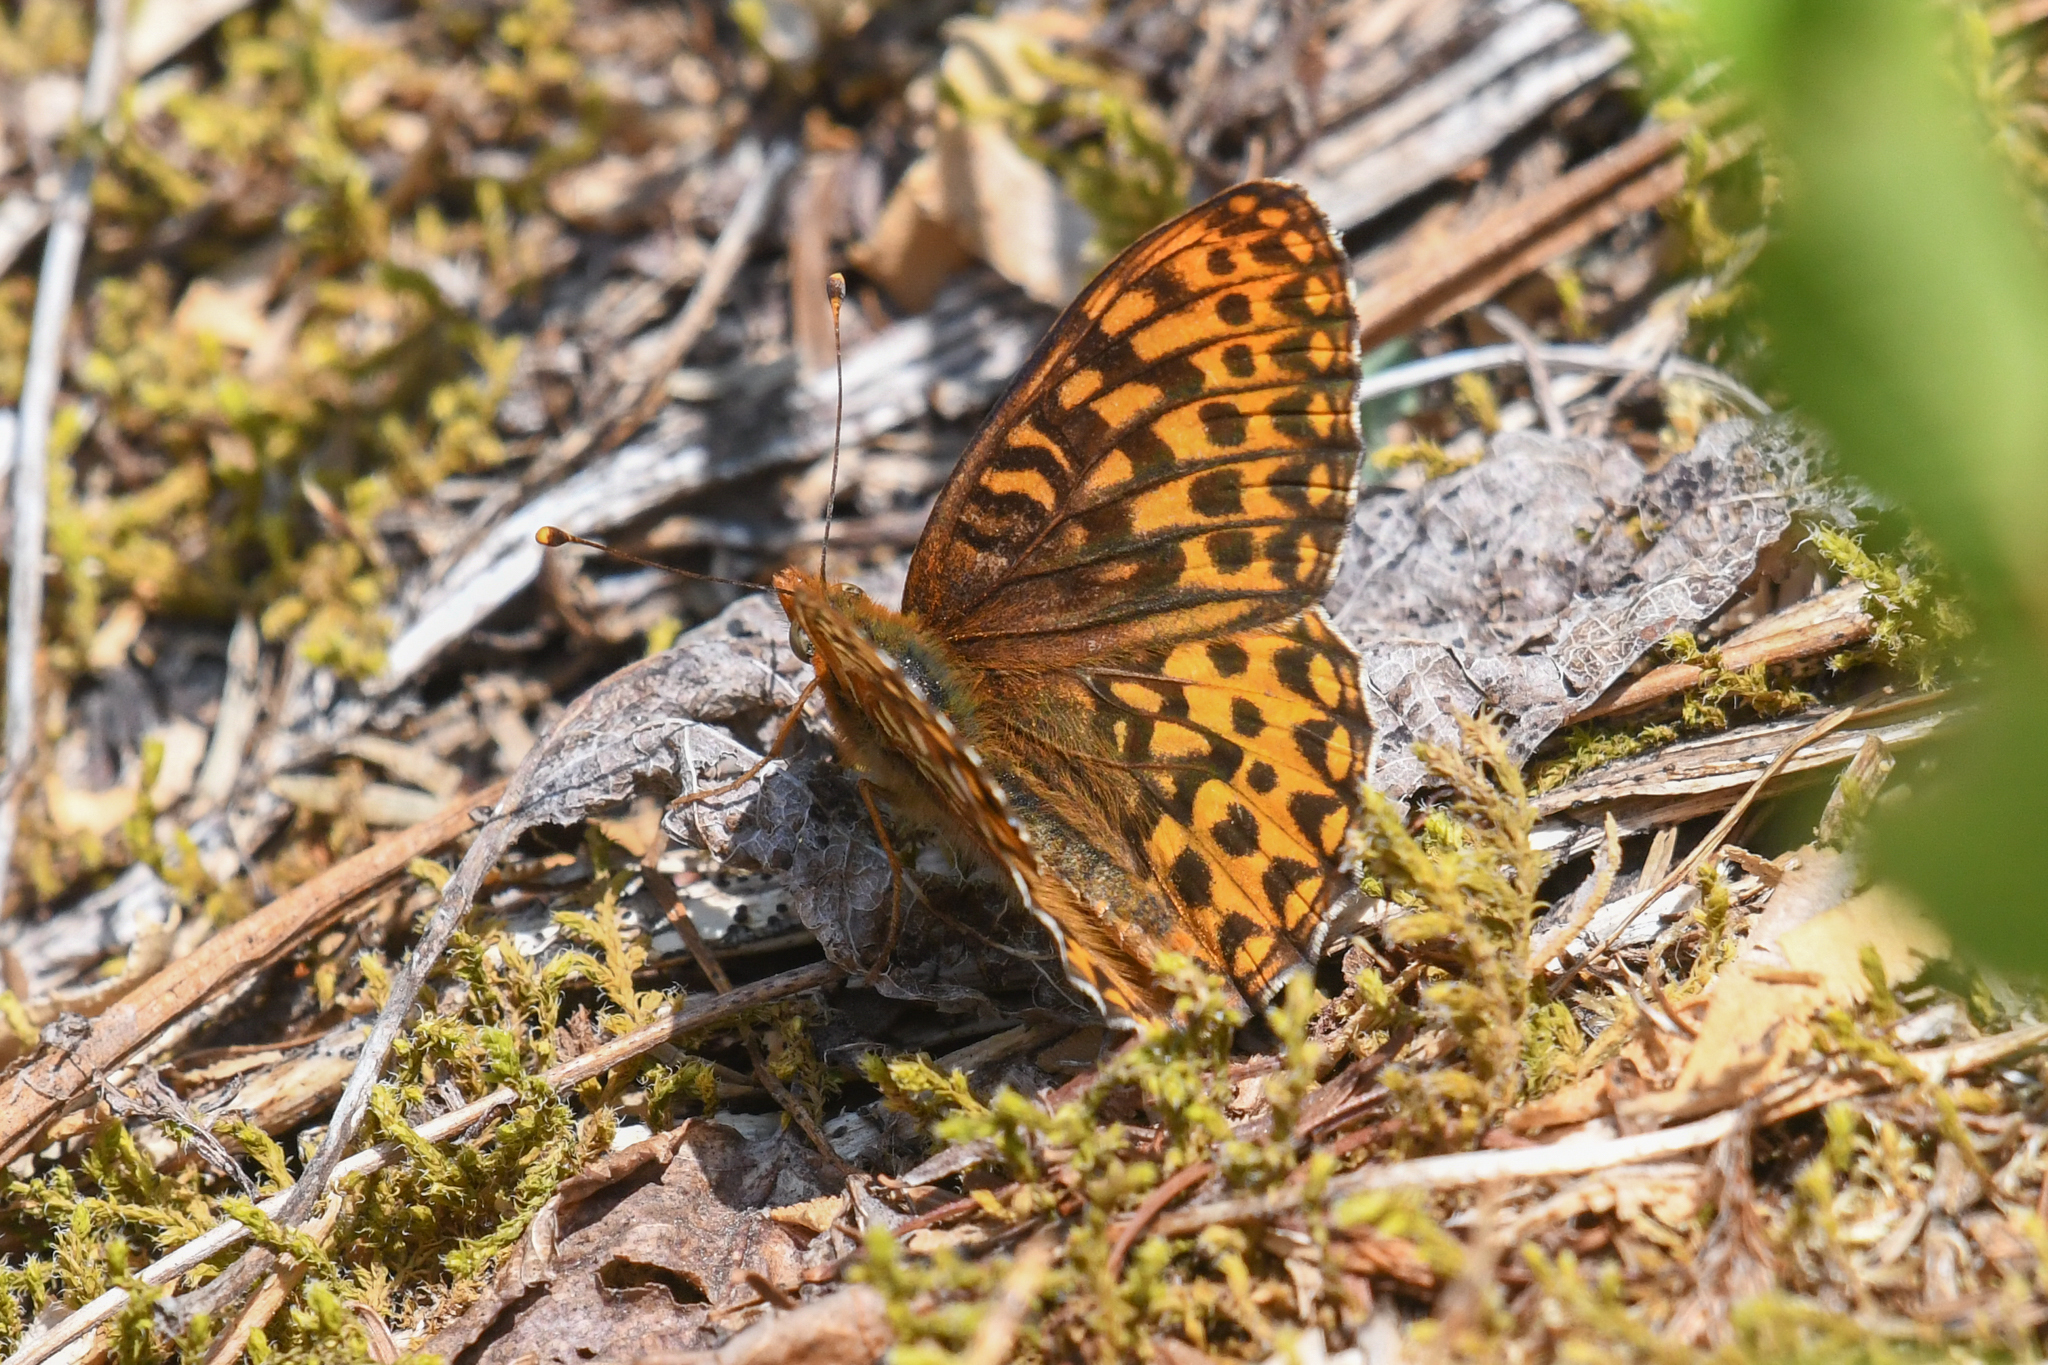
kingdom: Animalia
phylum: Arthropoda
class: Insecta
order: Lepidoptera
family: Nymphalidae
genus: Speyeria
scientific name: Speyeria hydaspe
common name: Hydaspe fritillary
